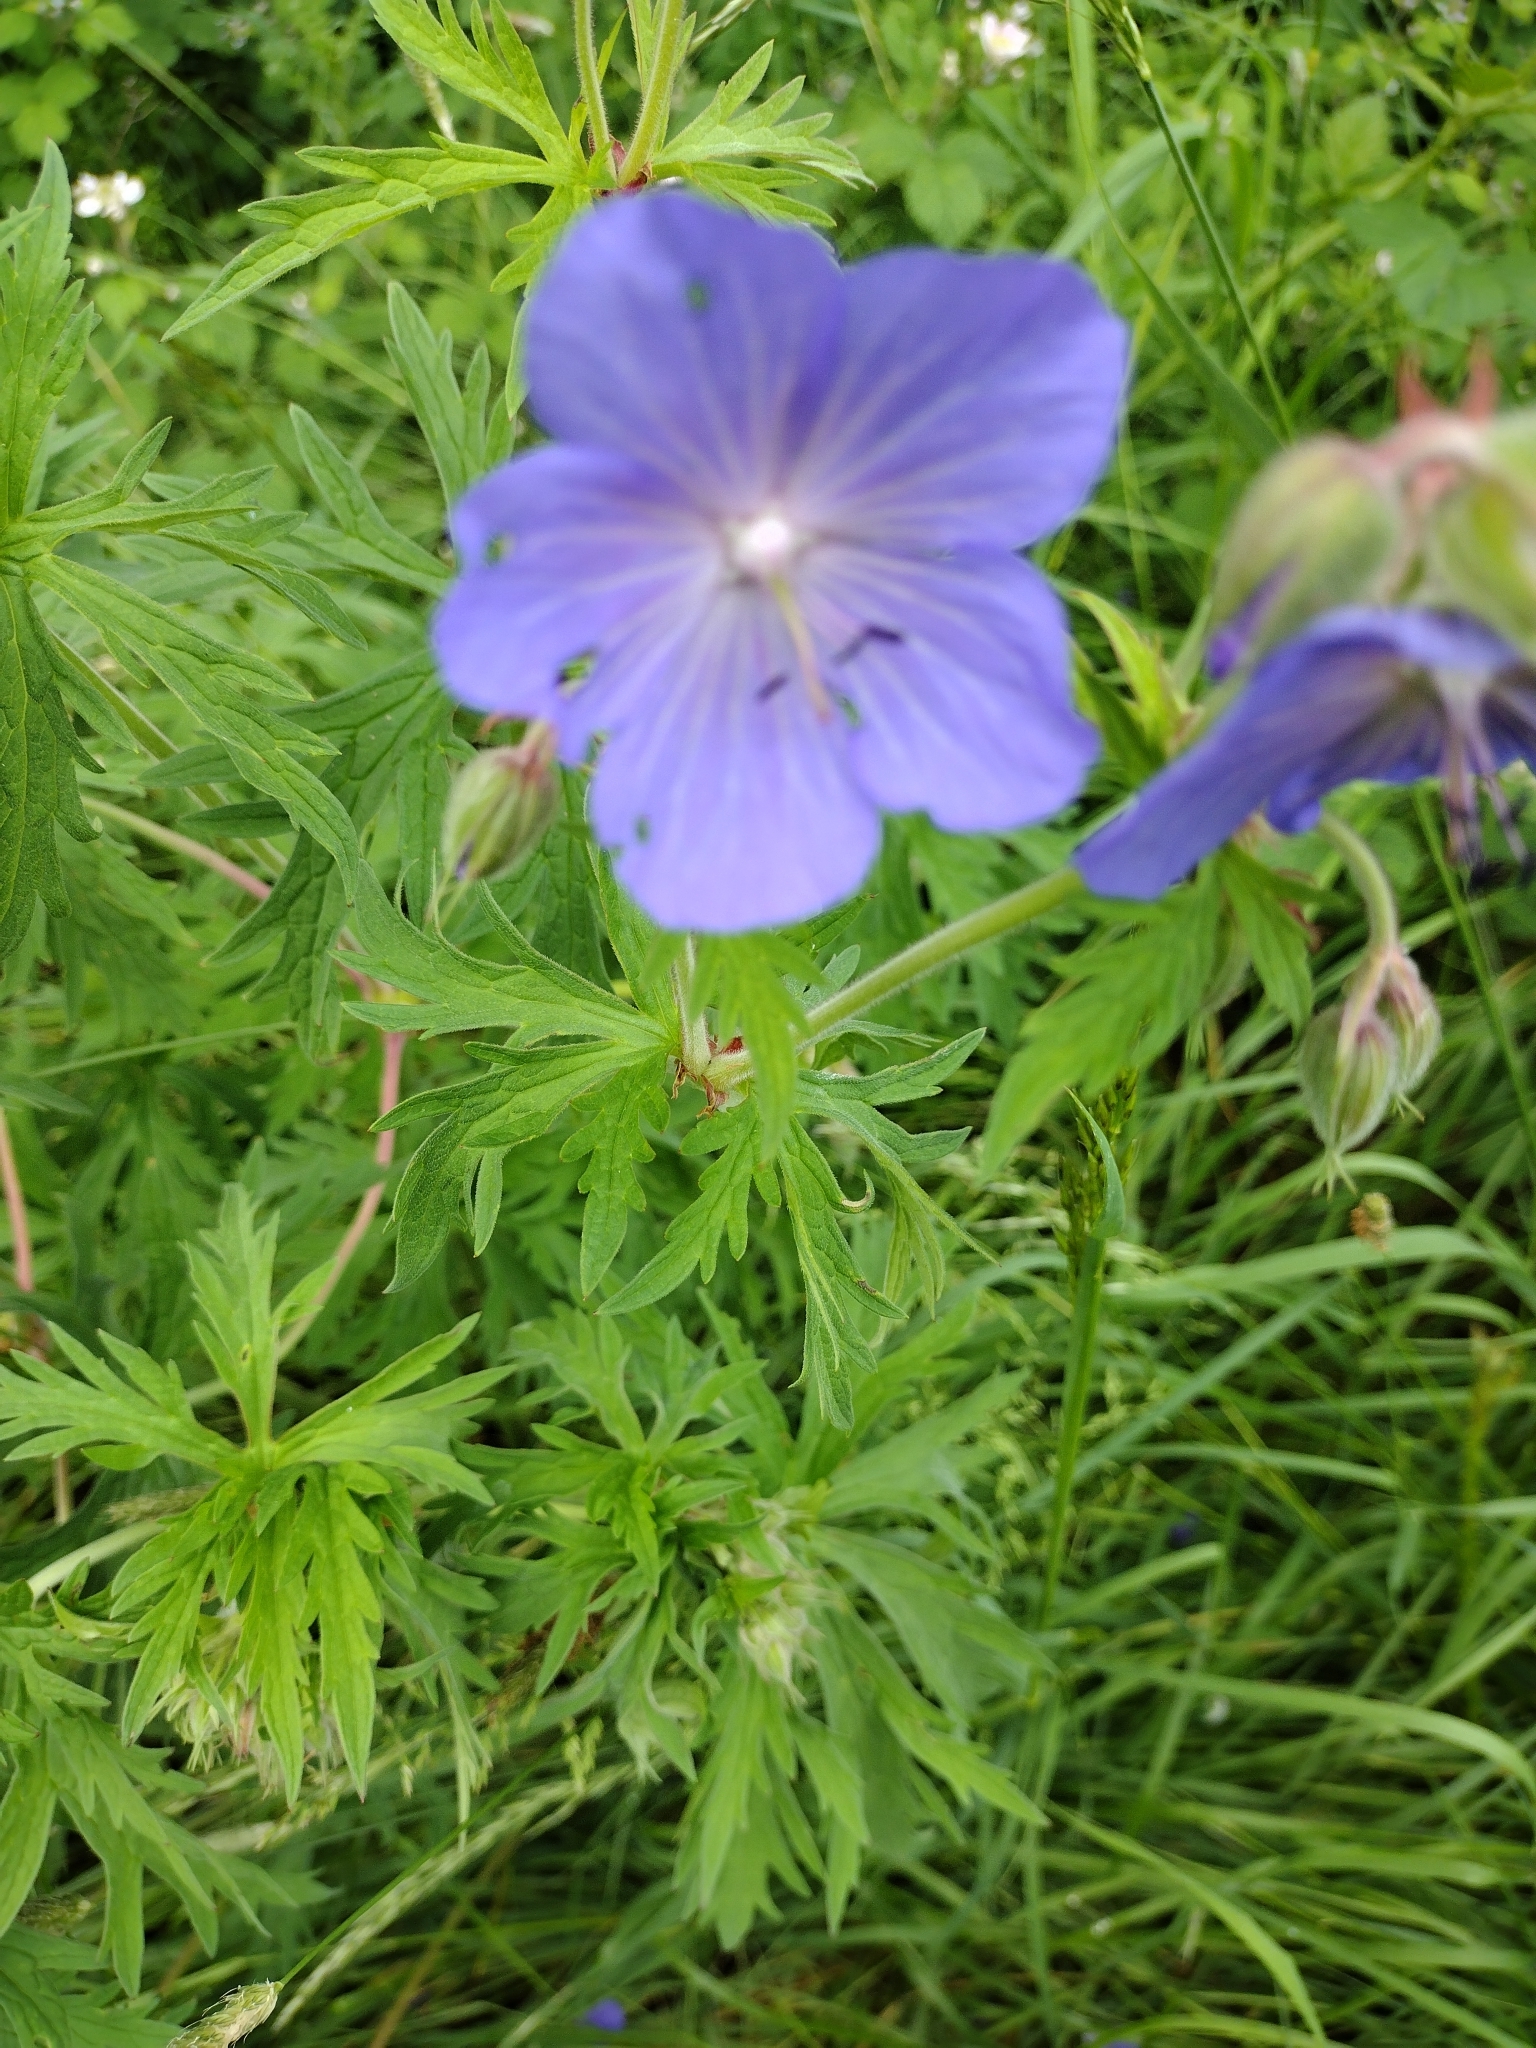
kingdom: Plantae
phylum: Tracheophyta
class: Magnoliopsida
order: Geraniales
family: Geraniaceae
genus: Geranium
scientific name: Geranium pratense
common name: Meadow crane's-bill
